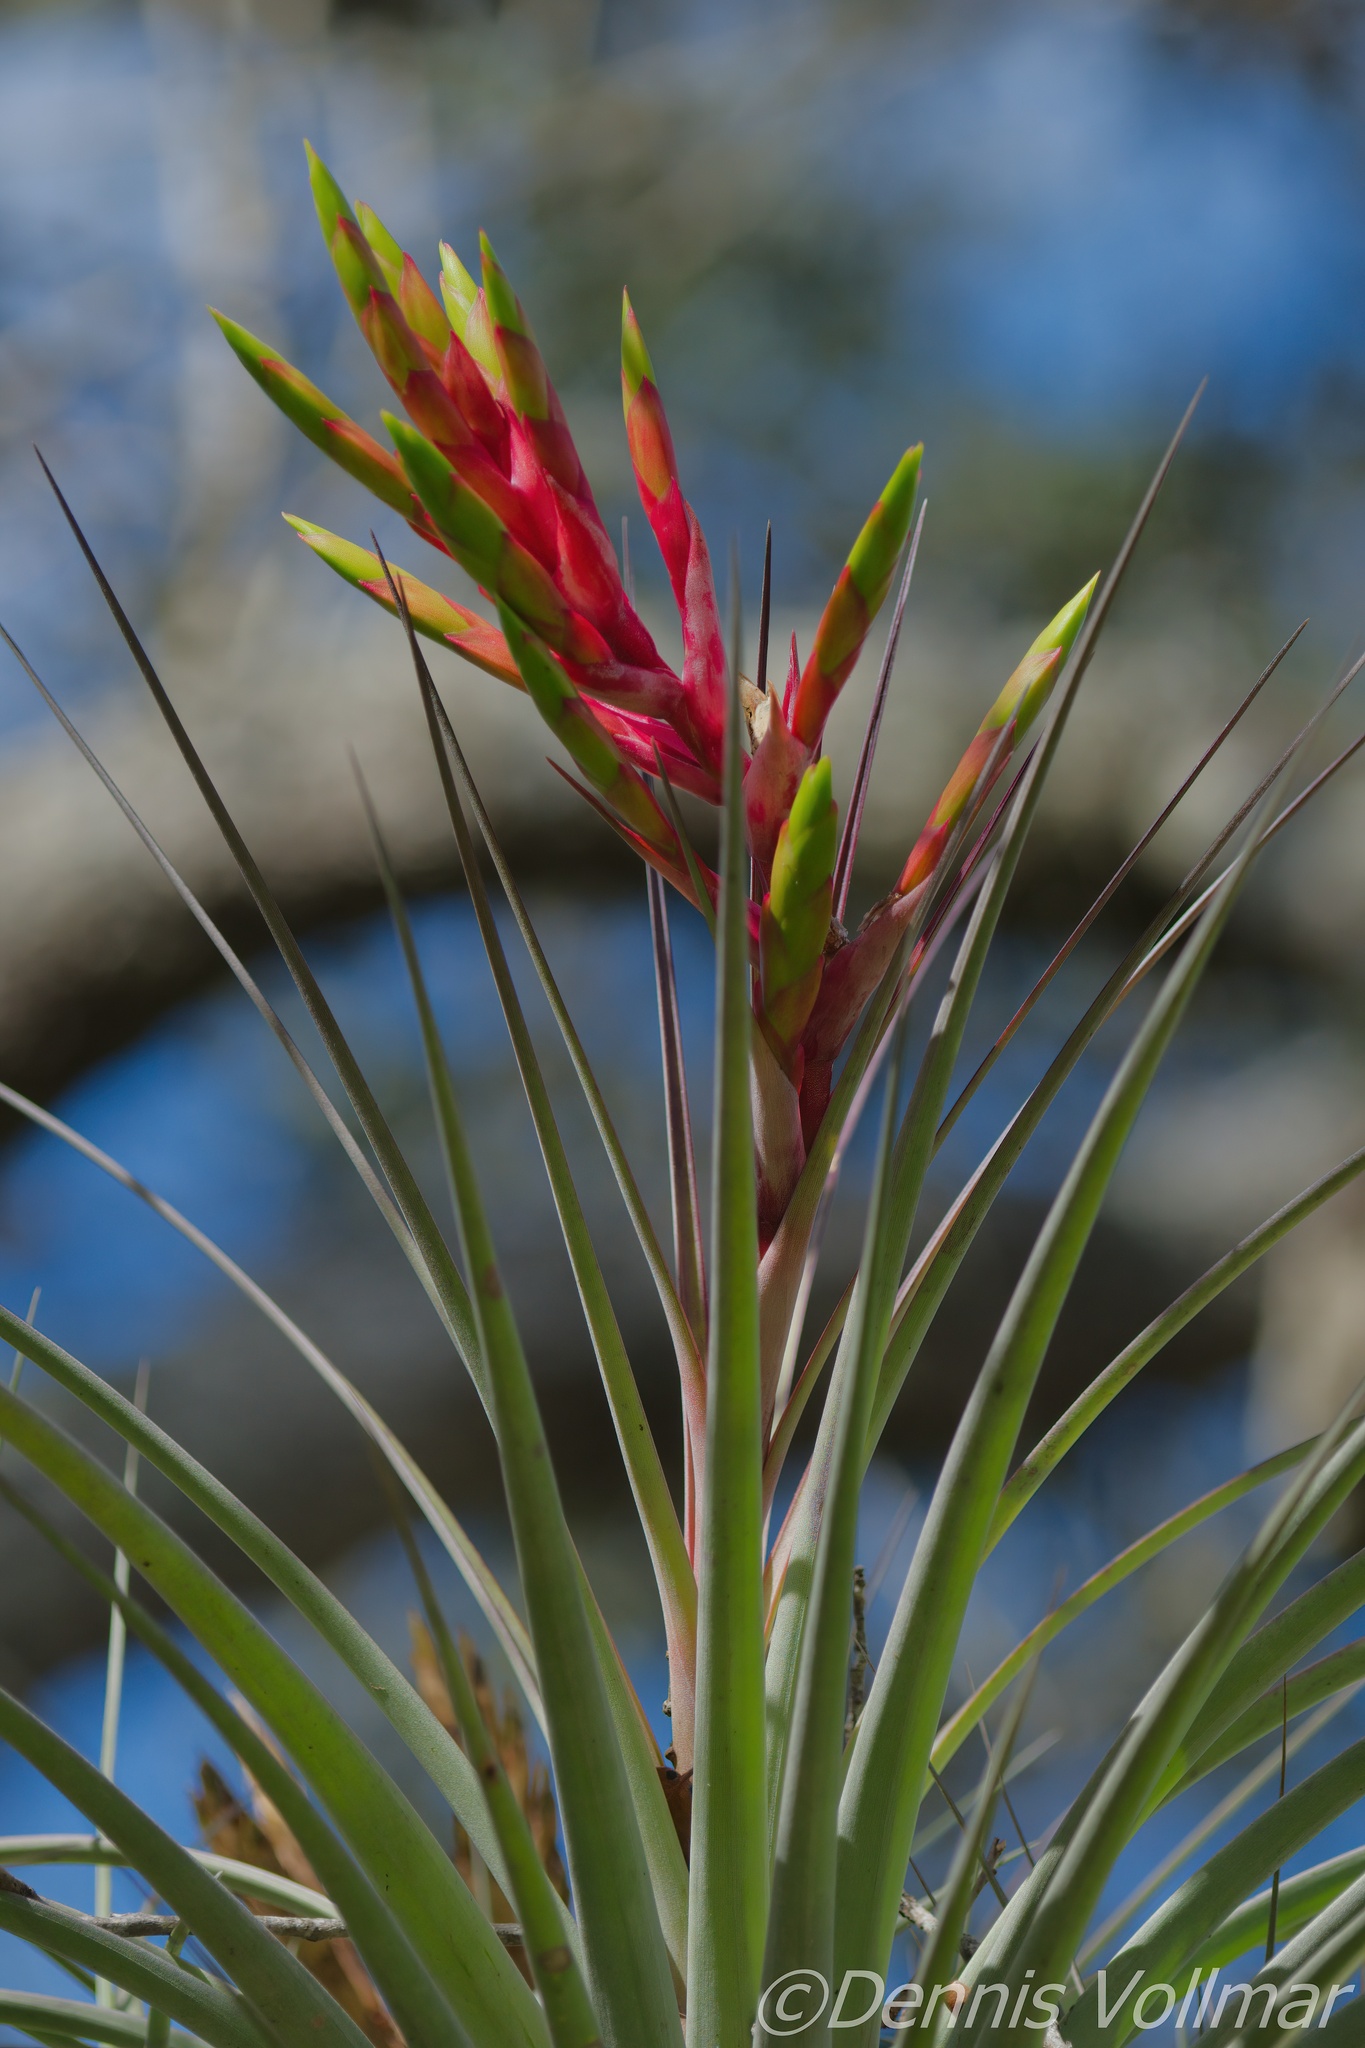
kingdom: Plantae
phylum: Tracheophyta
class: Liliopsida
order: Poales
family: Bromeliaceae
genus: Tillandsia
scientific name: Tillandsia fasciculata
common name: Giant airplant
